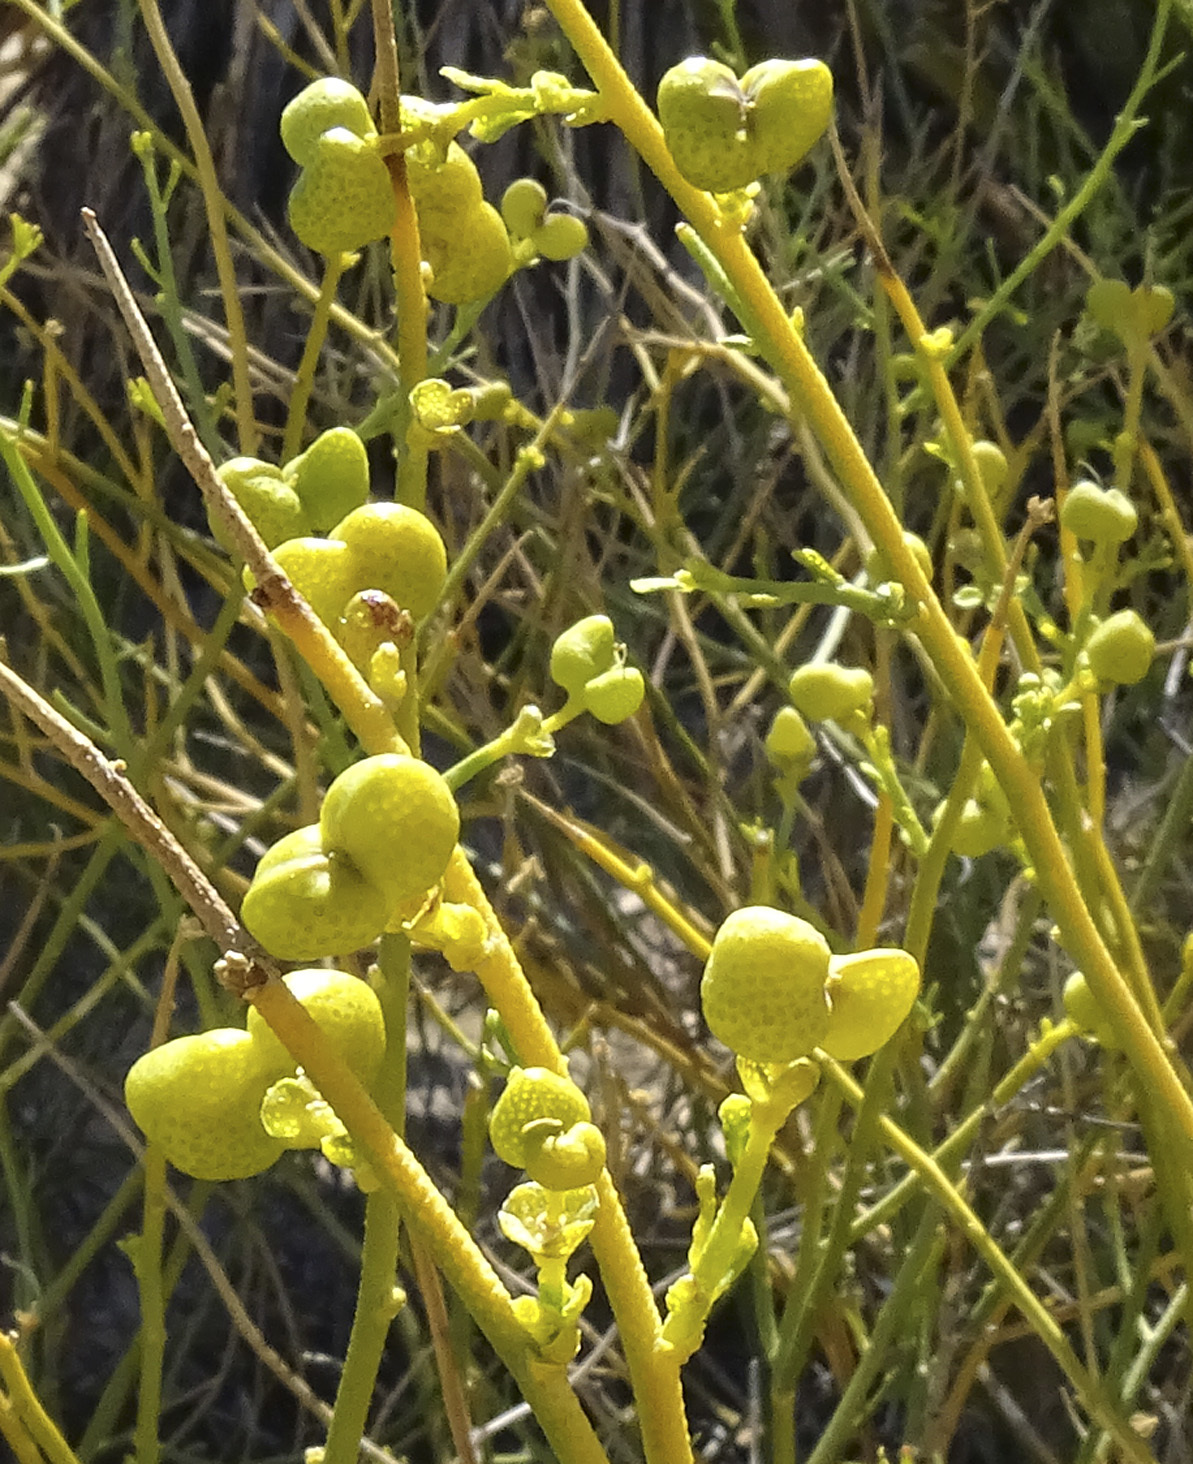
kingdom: Plantae
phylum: Tracheophyta
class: Magnoliopsida
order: Sapindales
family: Rutaceae
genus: Thamnosma
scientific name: Thamnosma montana
